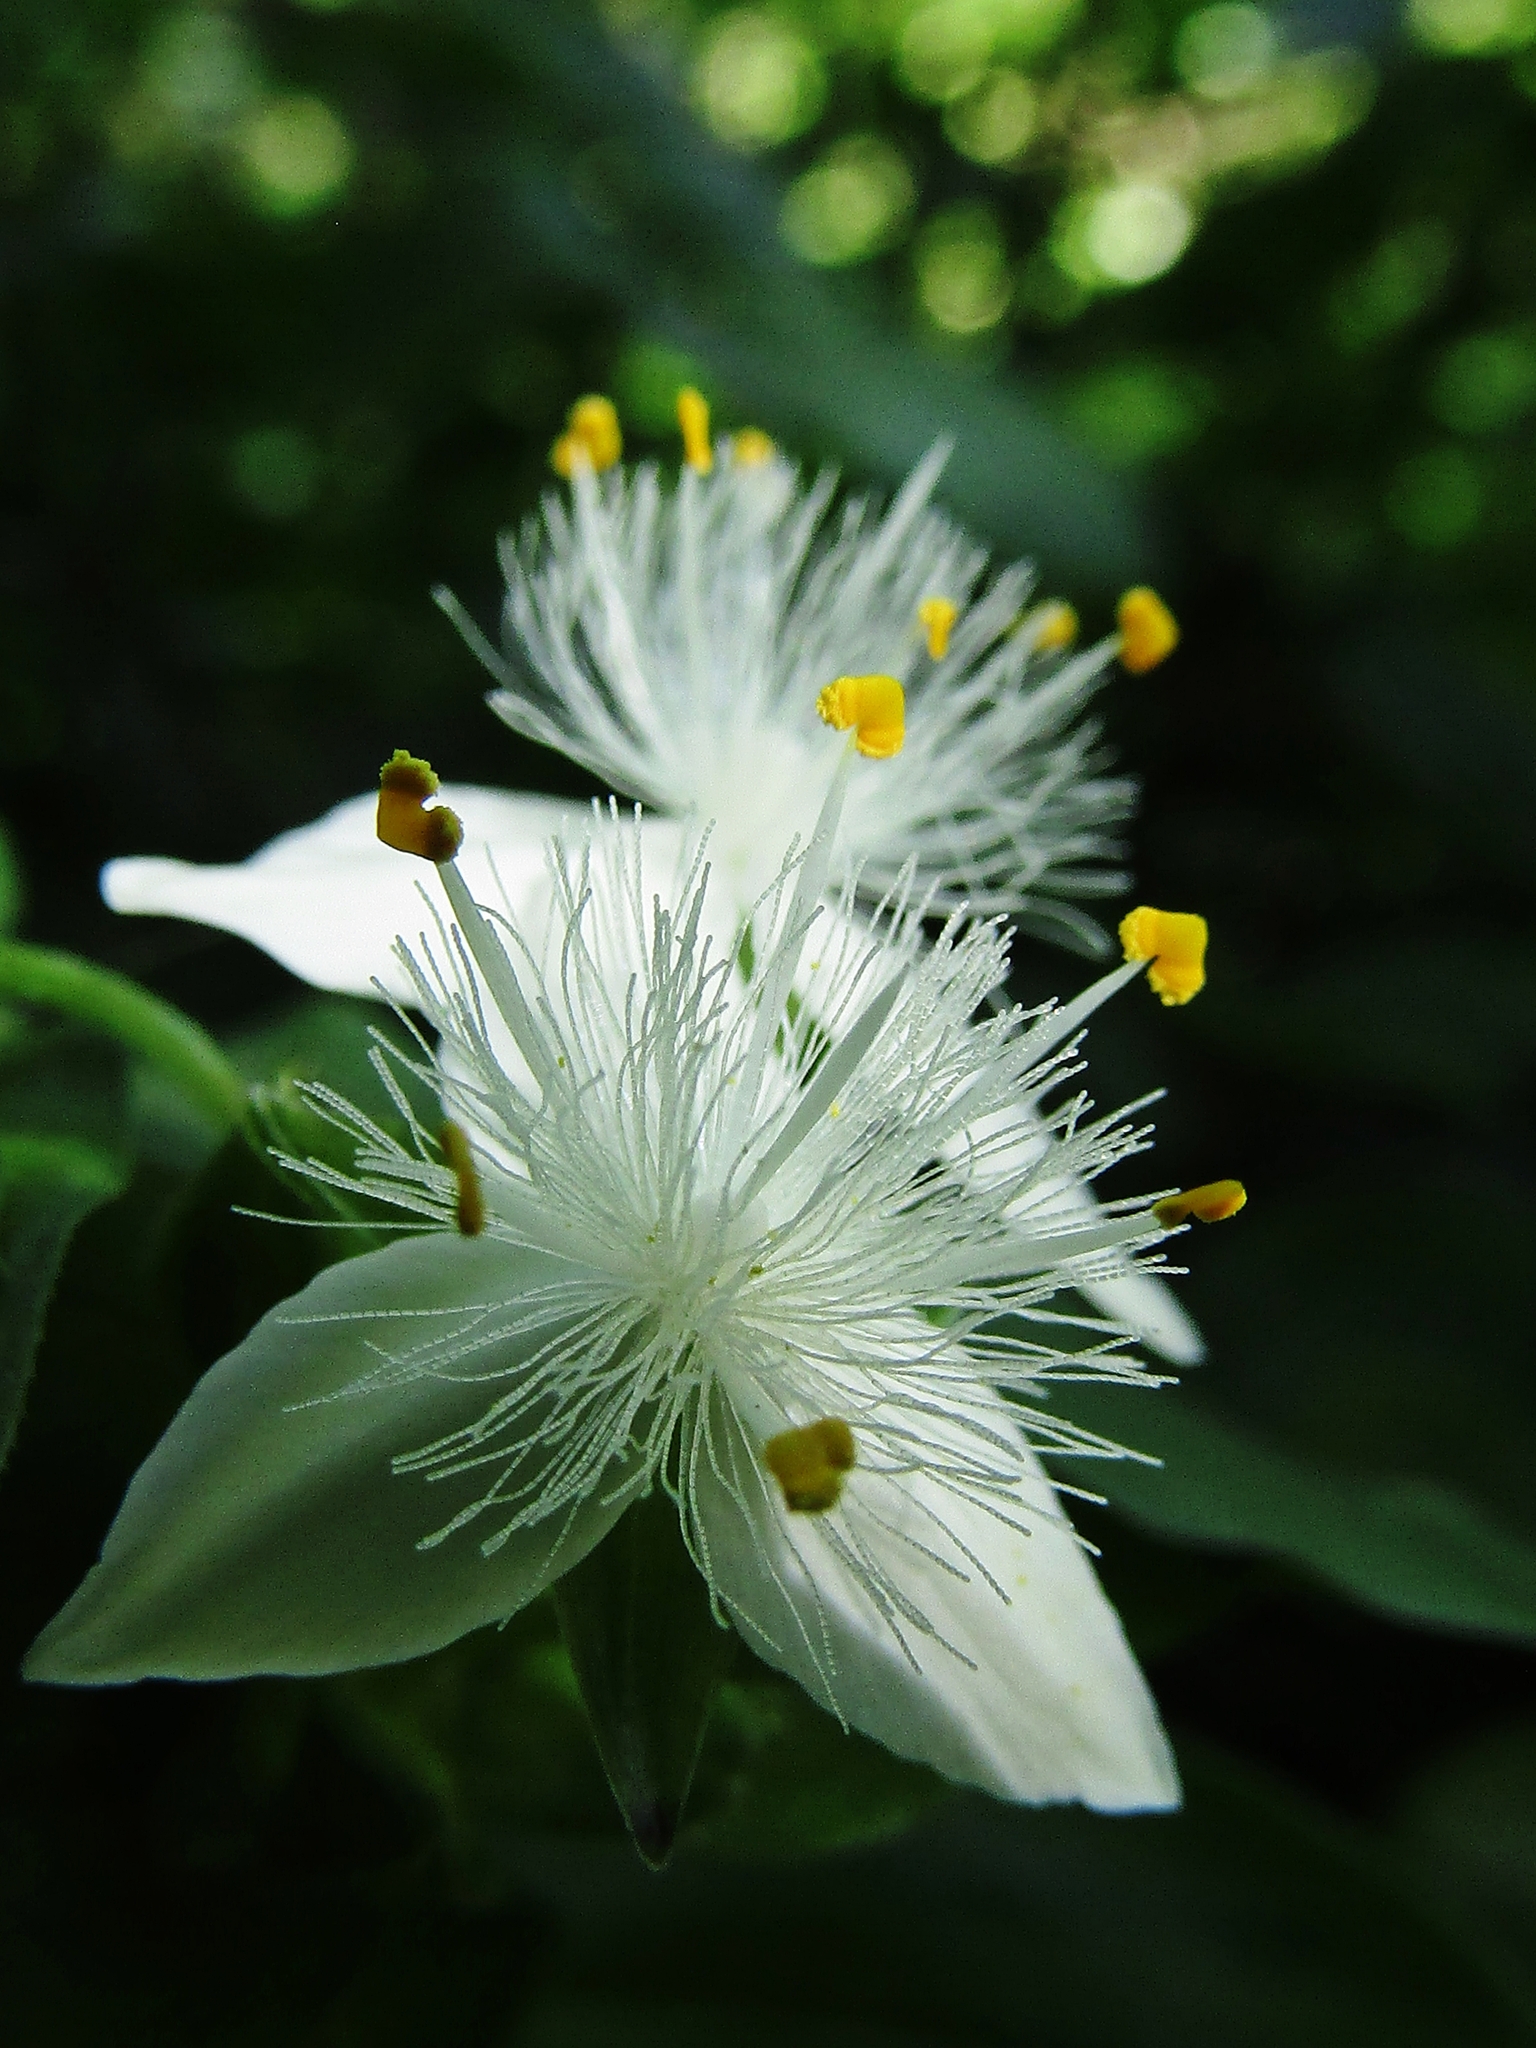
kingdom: Plantae
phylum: Tracheophyta
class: Liliopsida
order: Commelinales
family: Commelinaceae
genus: Tradescantia
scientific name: Tradescantia fluminensis
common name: Wandering-jew
